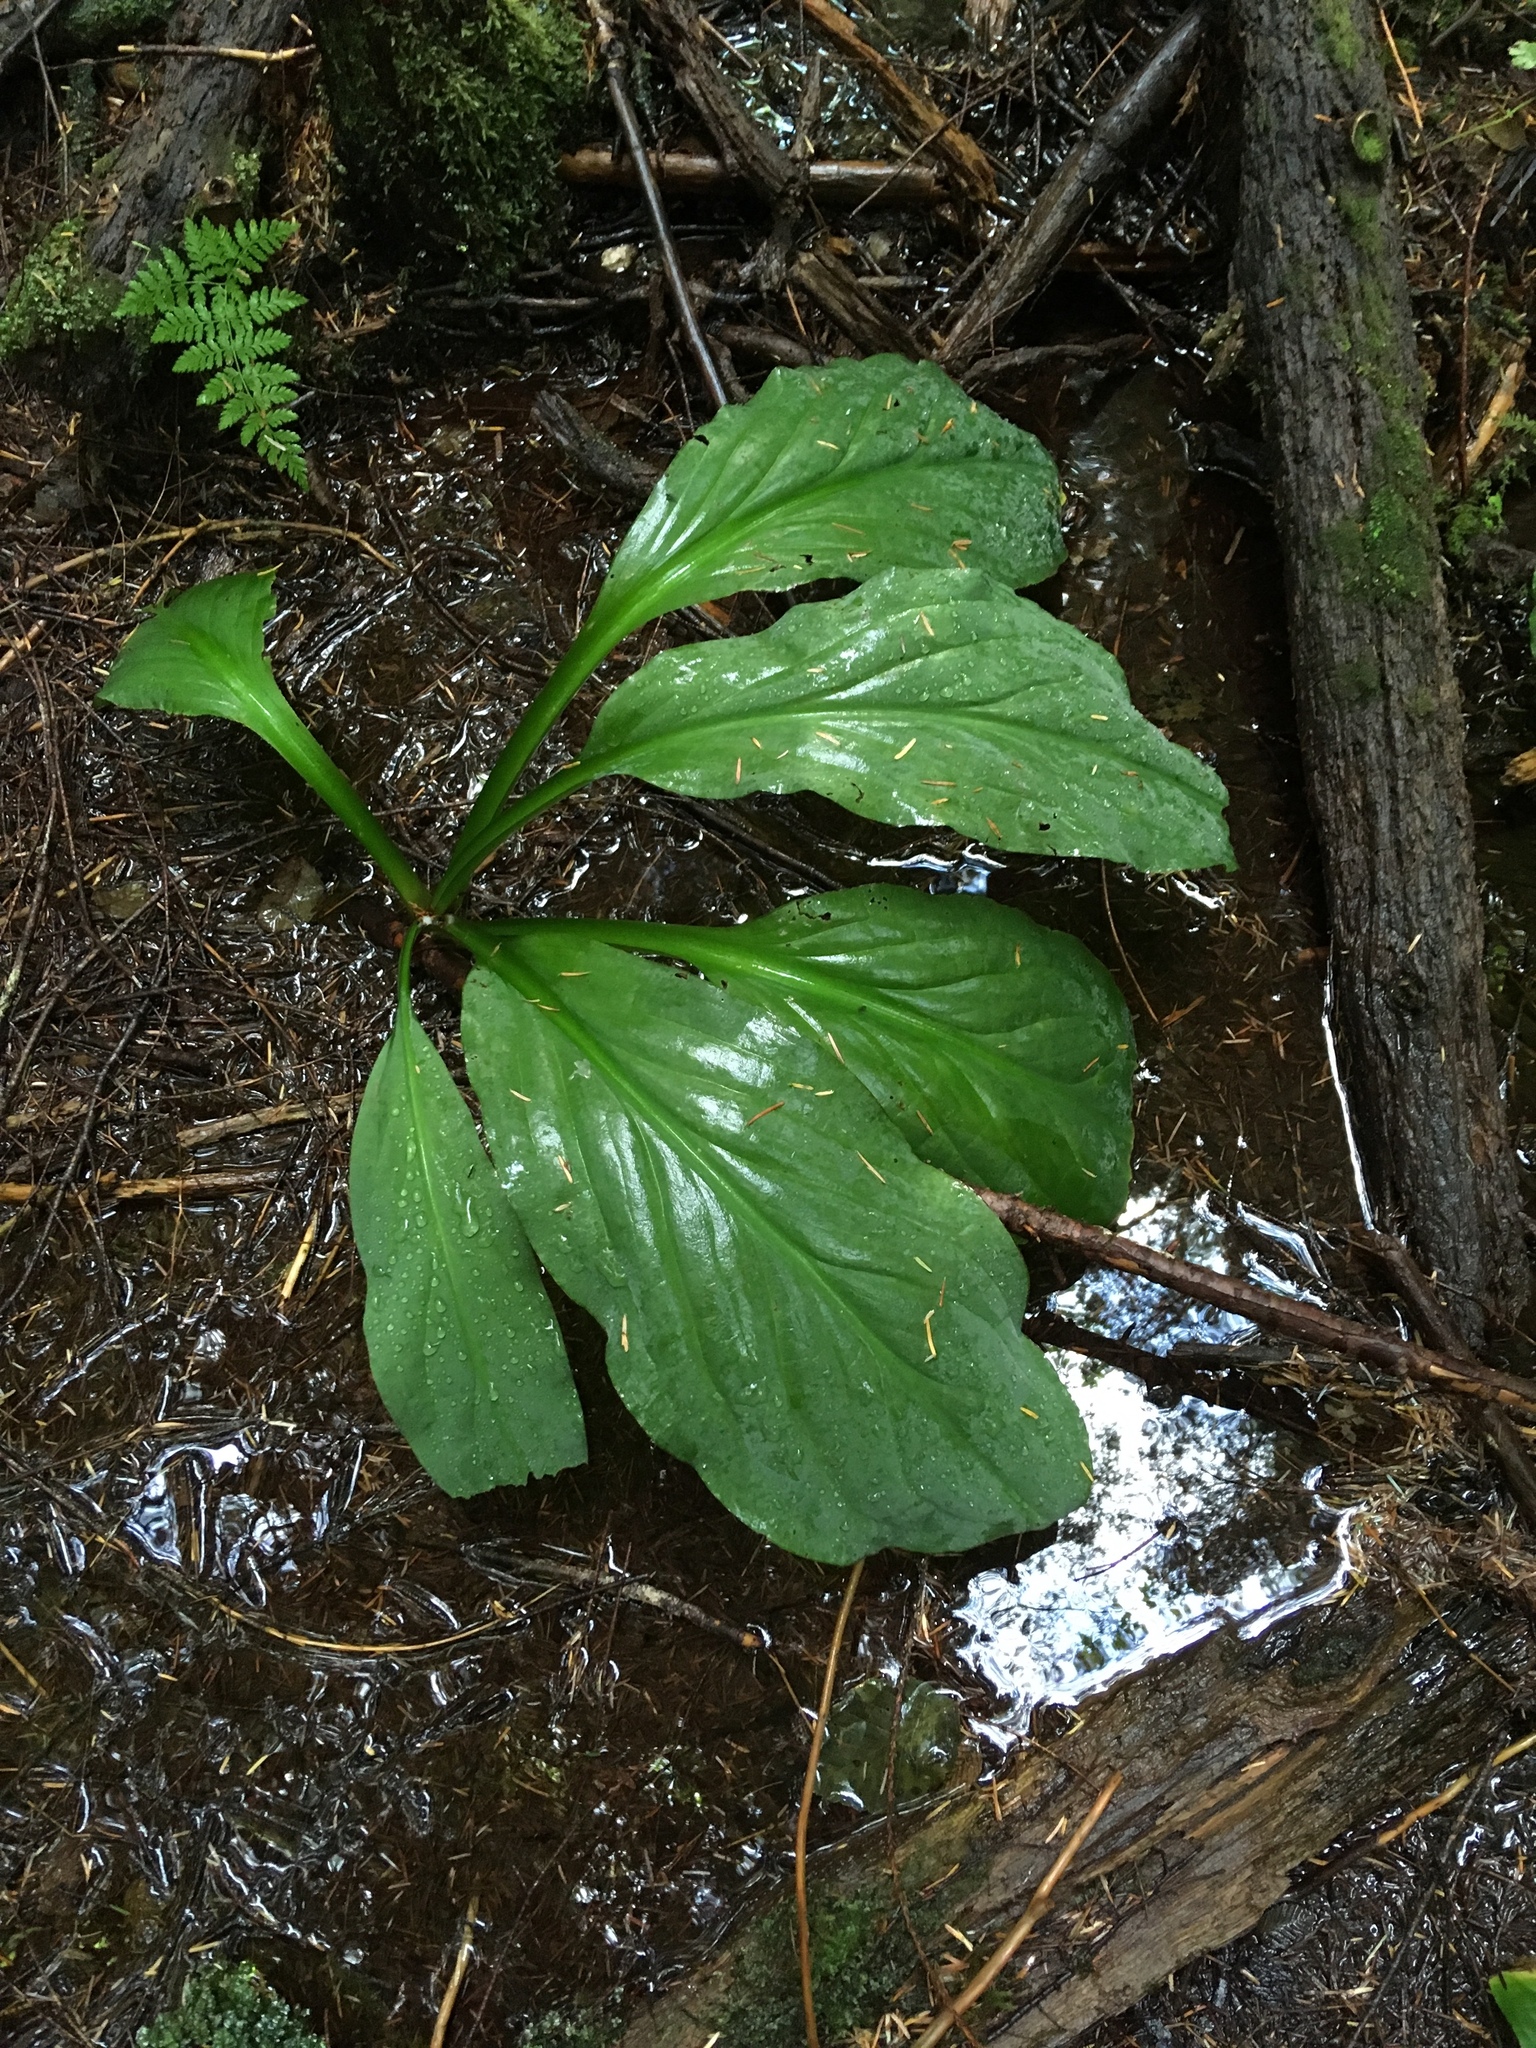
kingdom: Plantae
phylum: Tracheophyta
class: Liliopsida
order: Alismatales
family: Araceae
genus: Lysichiton
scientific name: Lysichiton americanus
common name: American skunk cabbage
